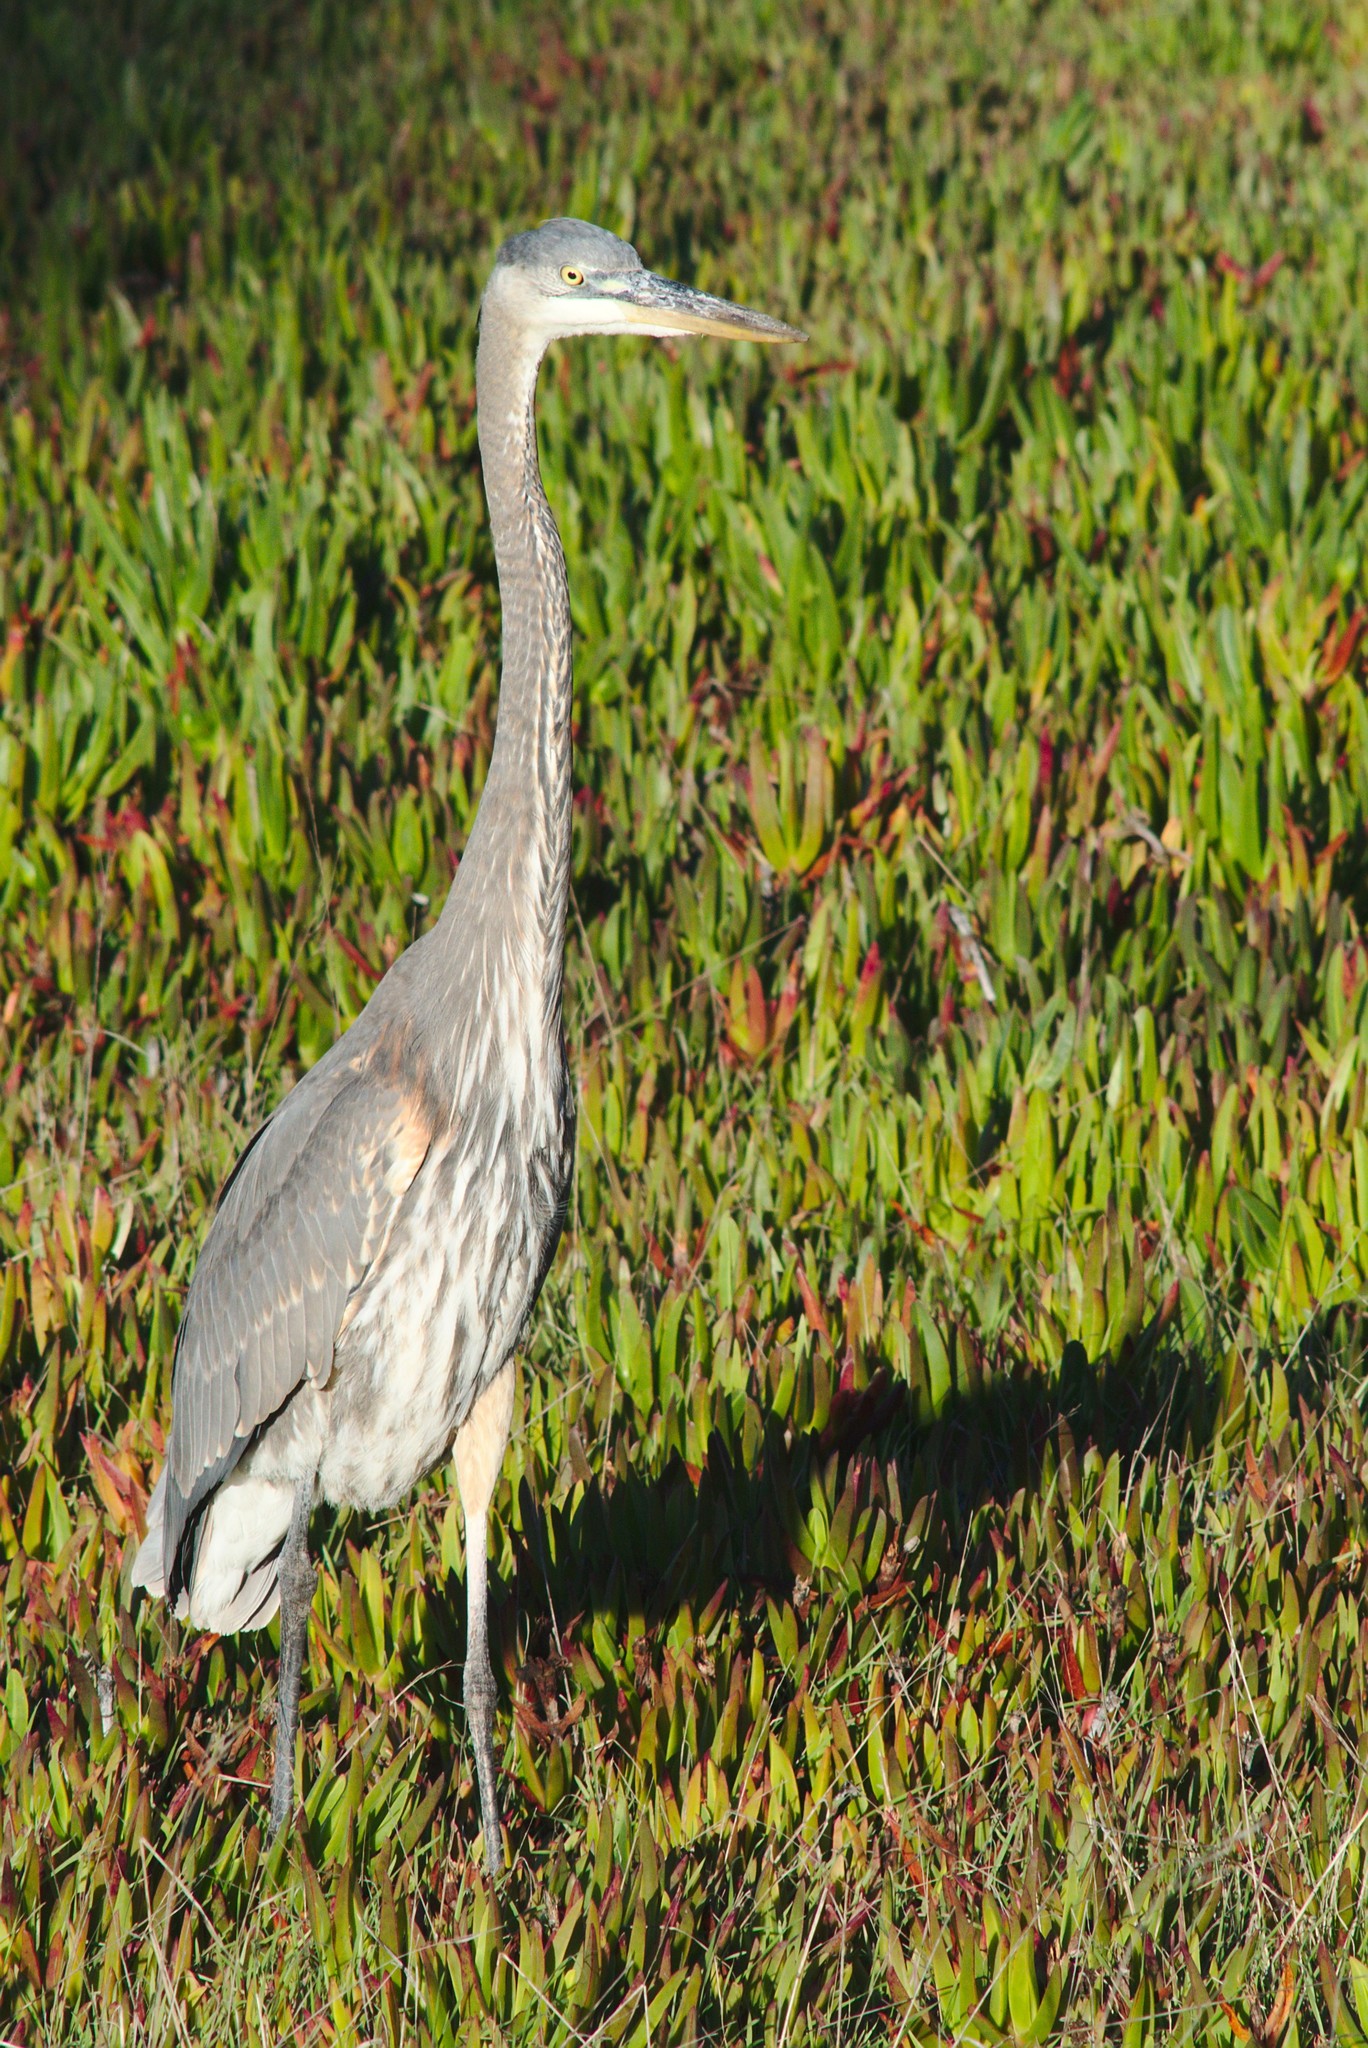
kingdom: Animalia
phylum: Chordata
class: Aves
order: Pelecaniformes
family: Ardeidae
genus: Ardea
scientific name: Ardea herodias
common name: Great blue heron
